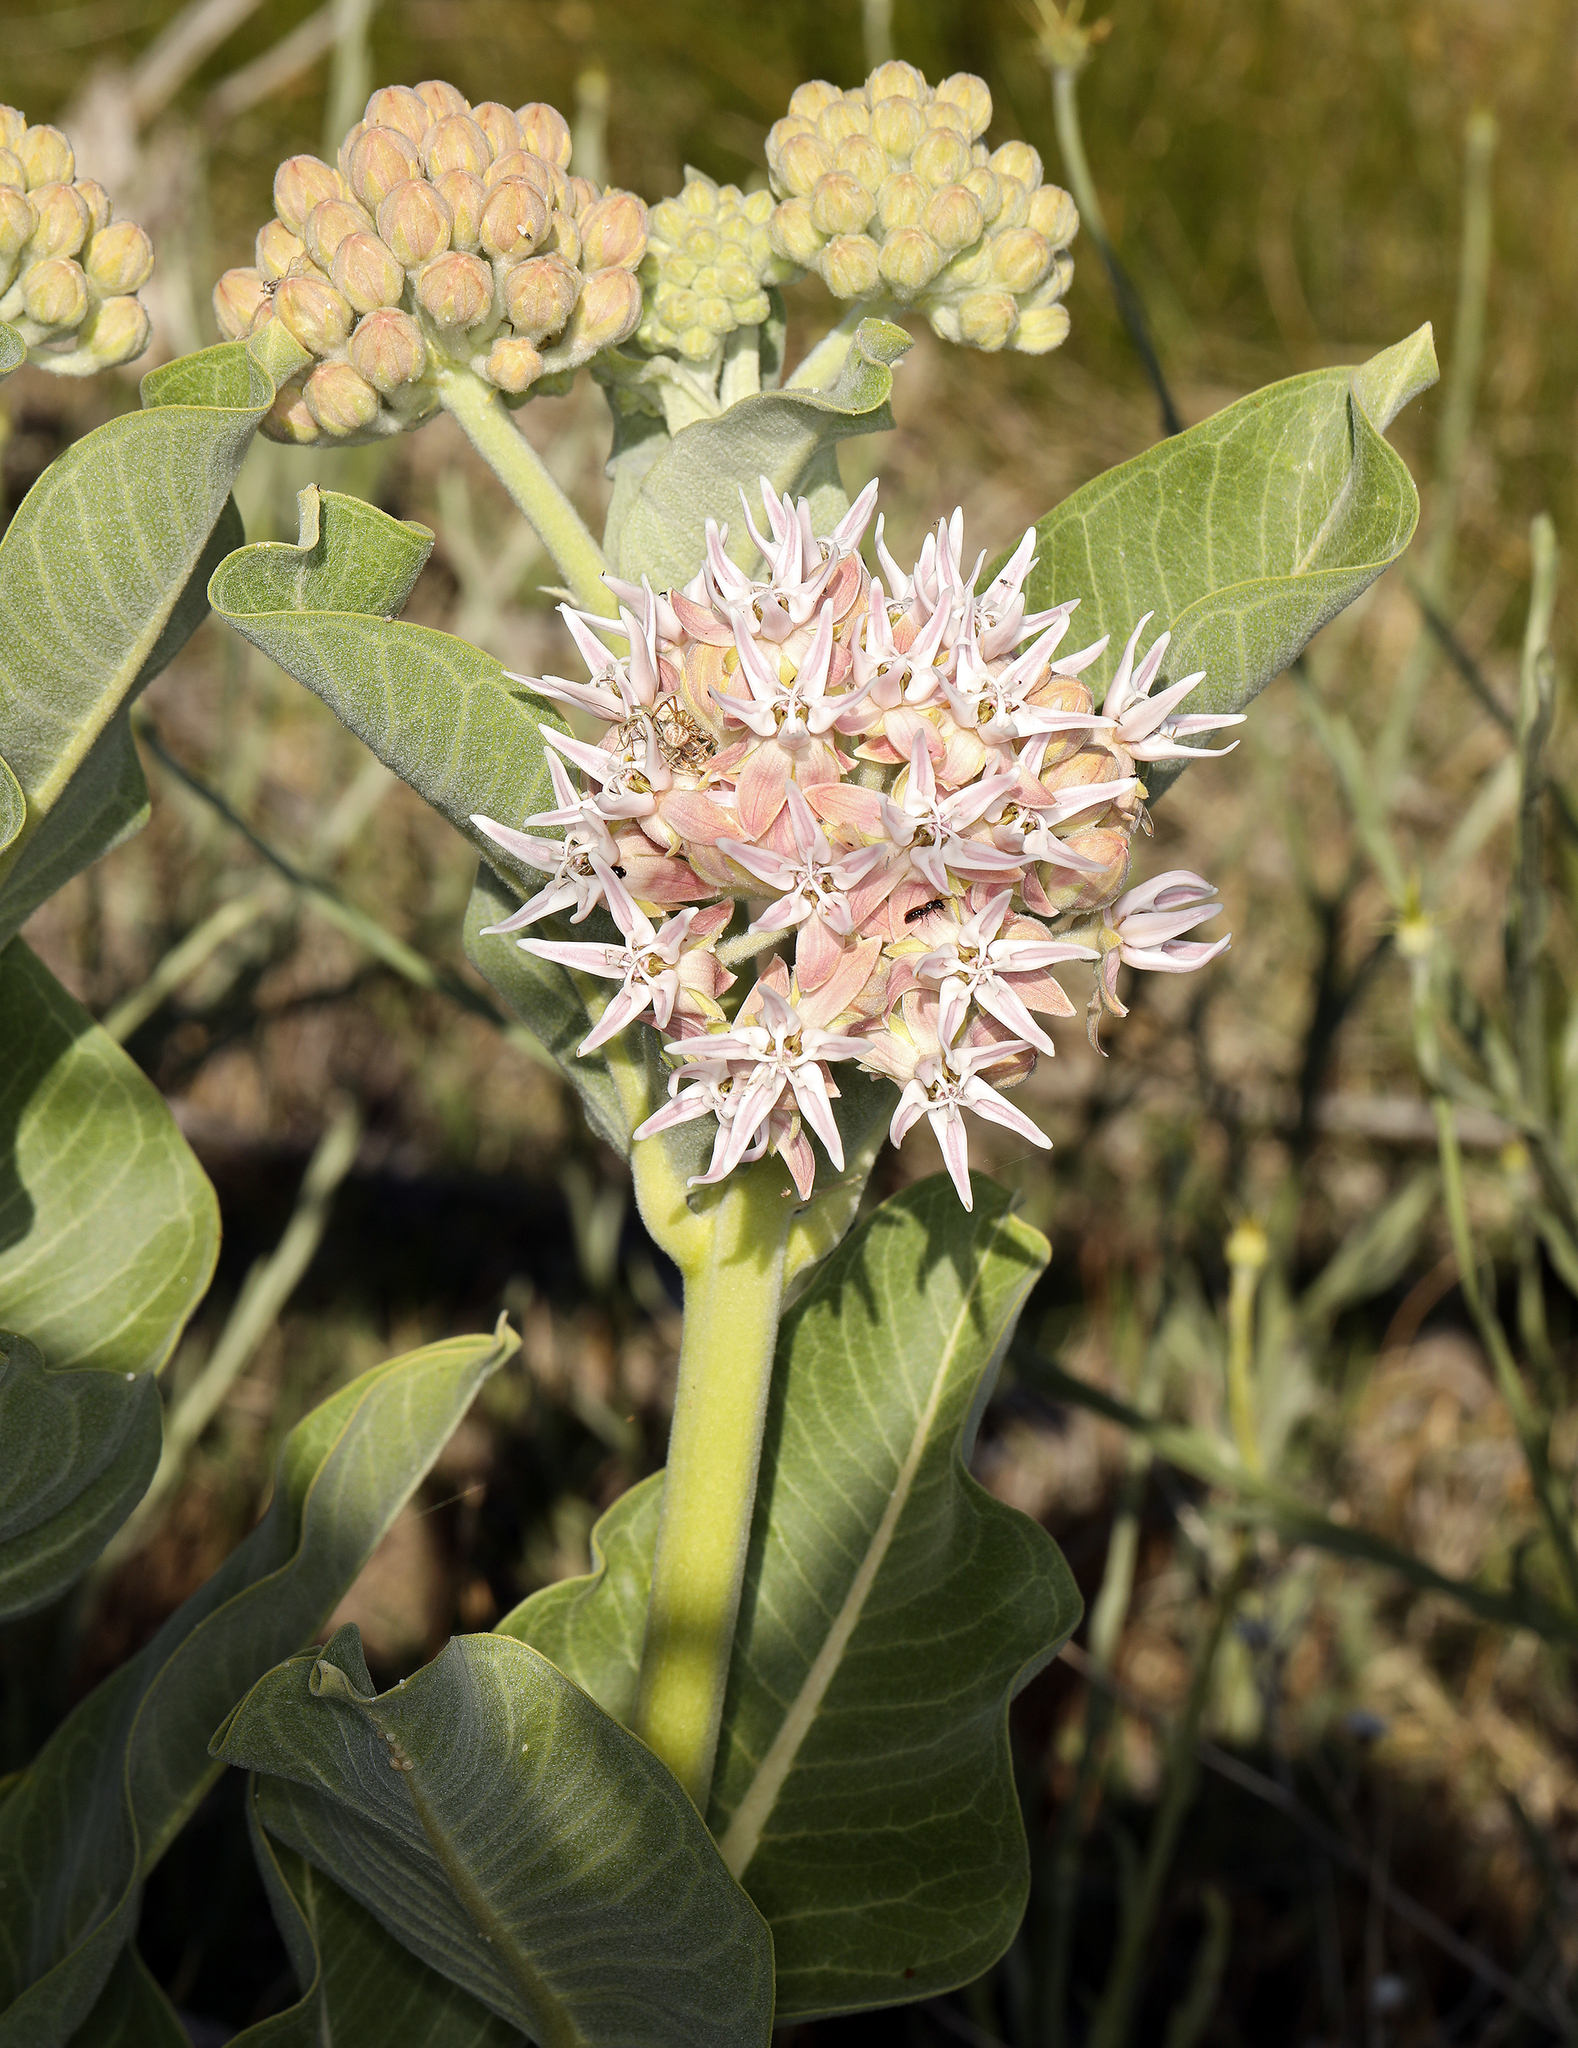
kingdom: Plantae
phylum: Tracheophyta
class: Magnoliopsida
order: Gentianales
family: Apocynaceae
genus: Asclepias
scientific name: Asclepias speciosa
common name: Showy milkweed
